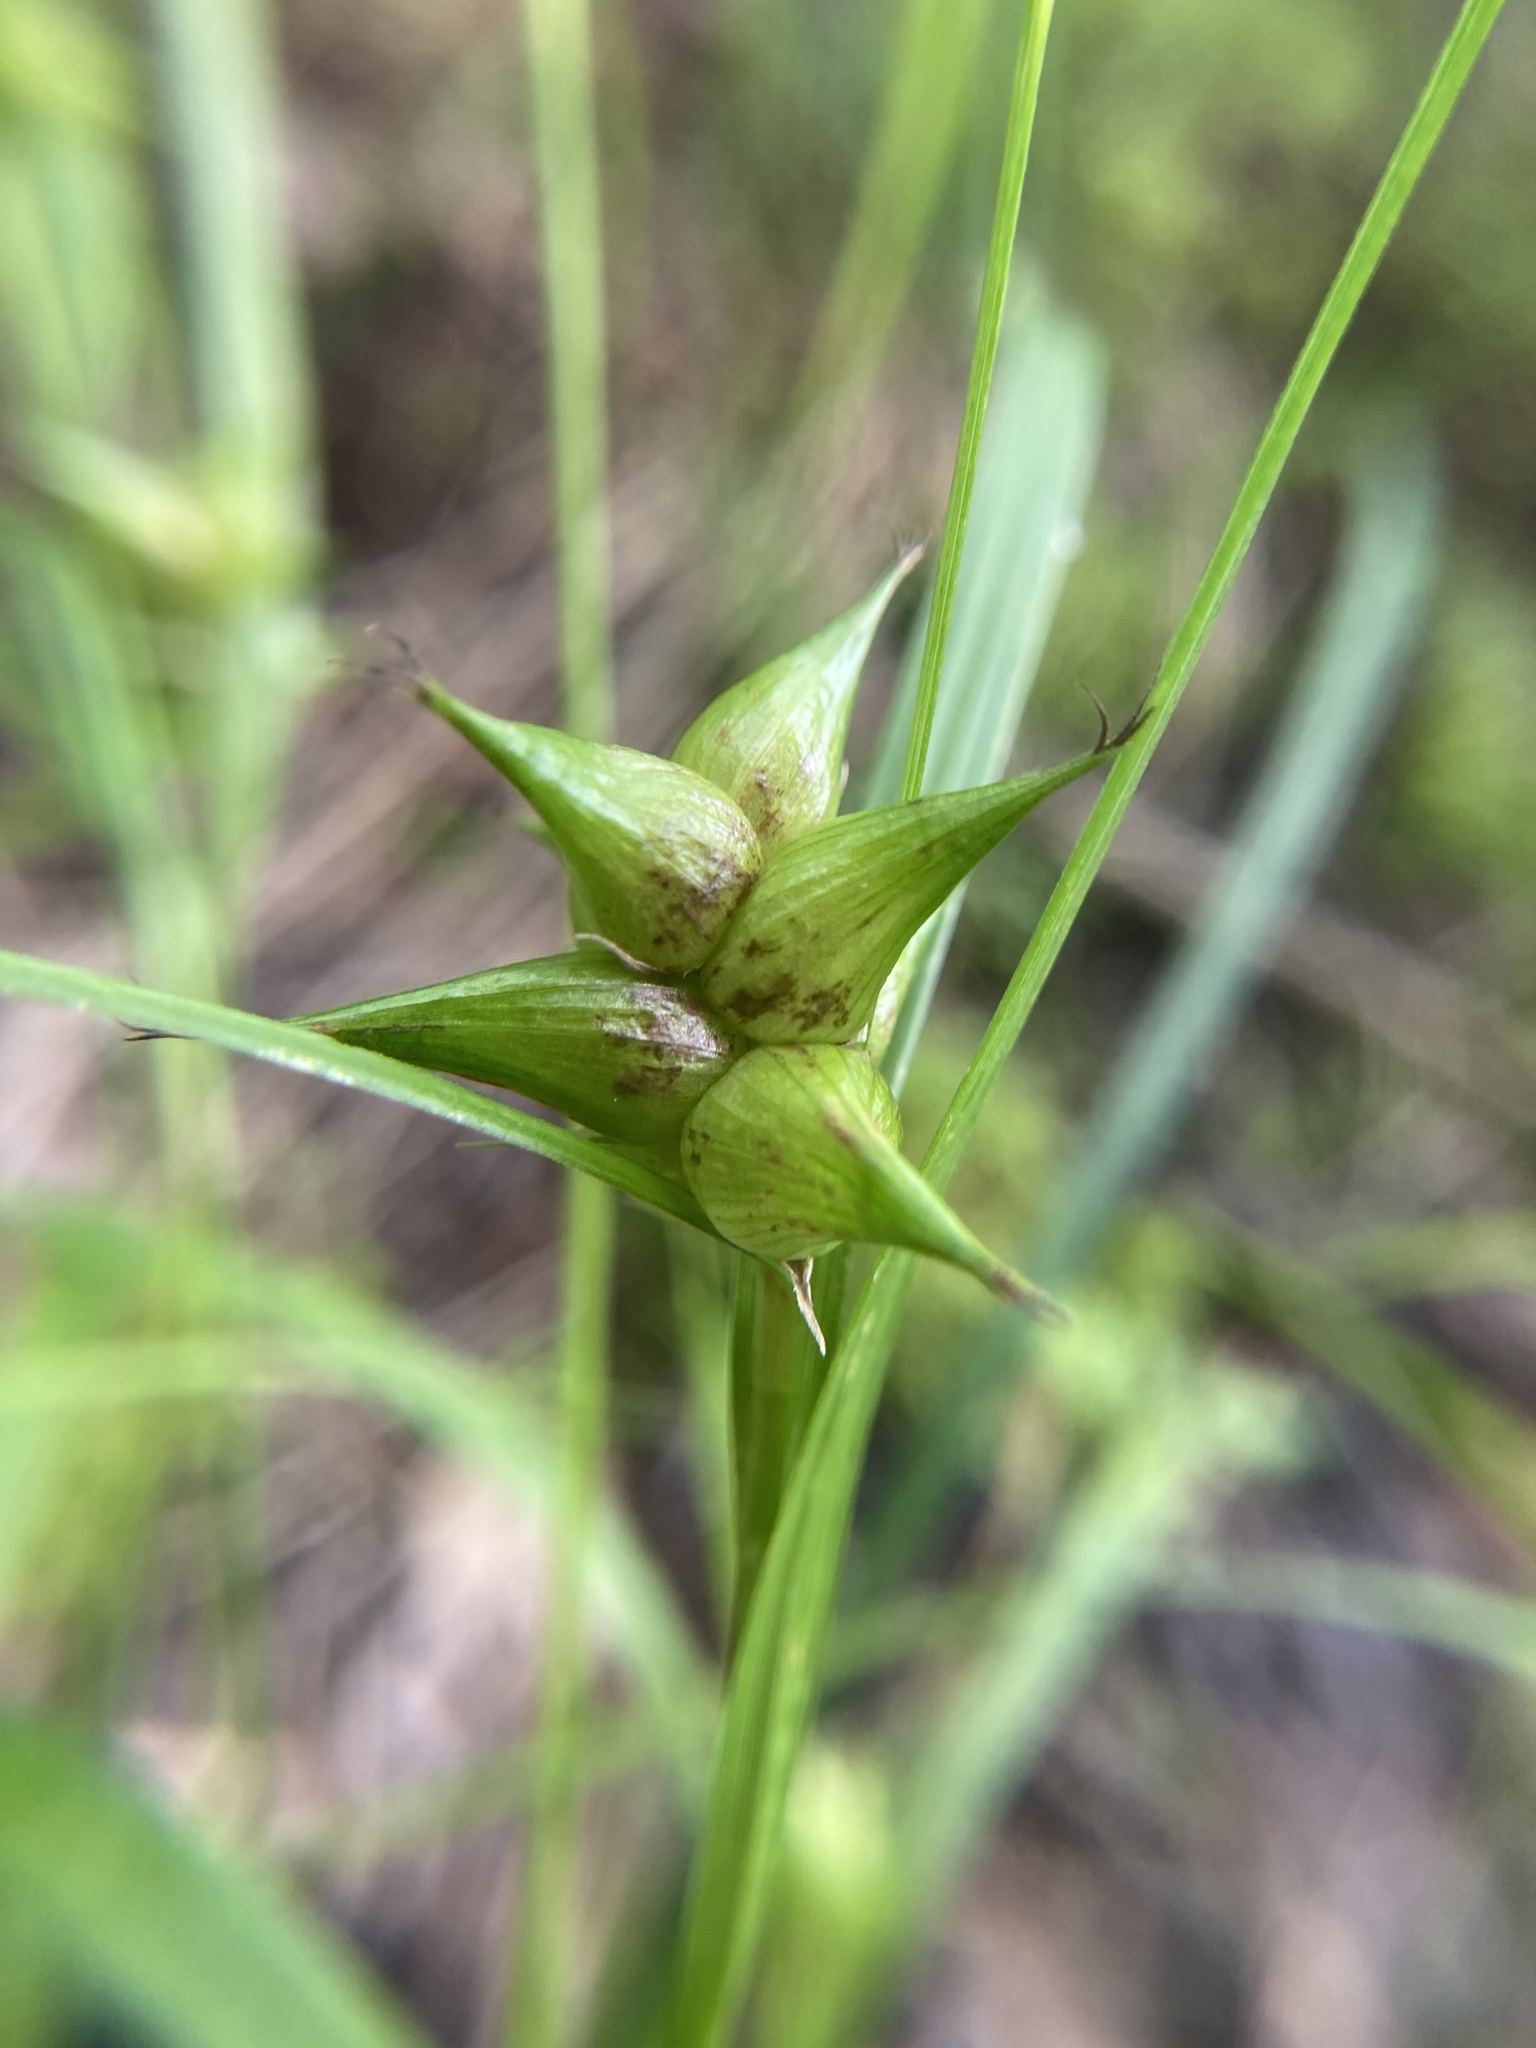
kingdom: Plantae
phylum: Tracheophyta
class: Liliopsida
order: Poales
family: Cyperaceae
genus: Carex
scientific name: Carex intumescens
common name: Greater bladder sedge
